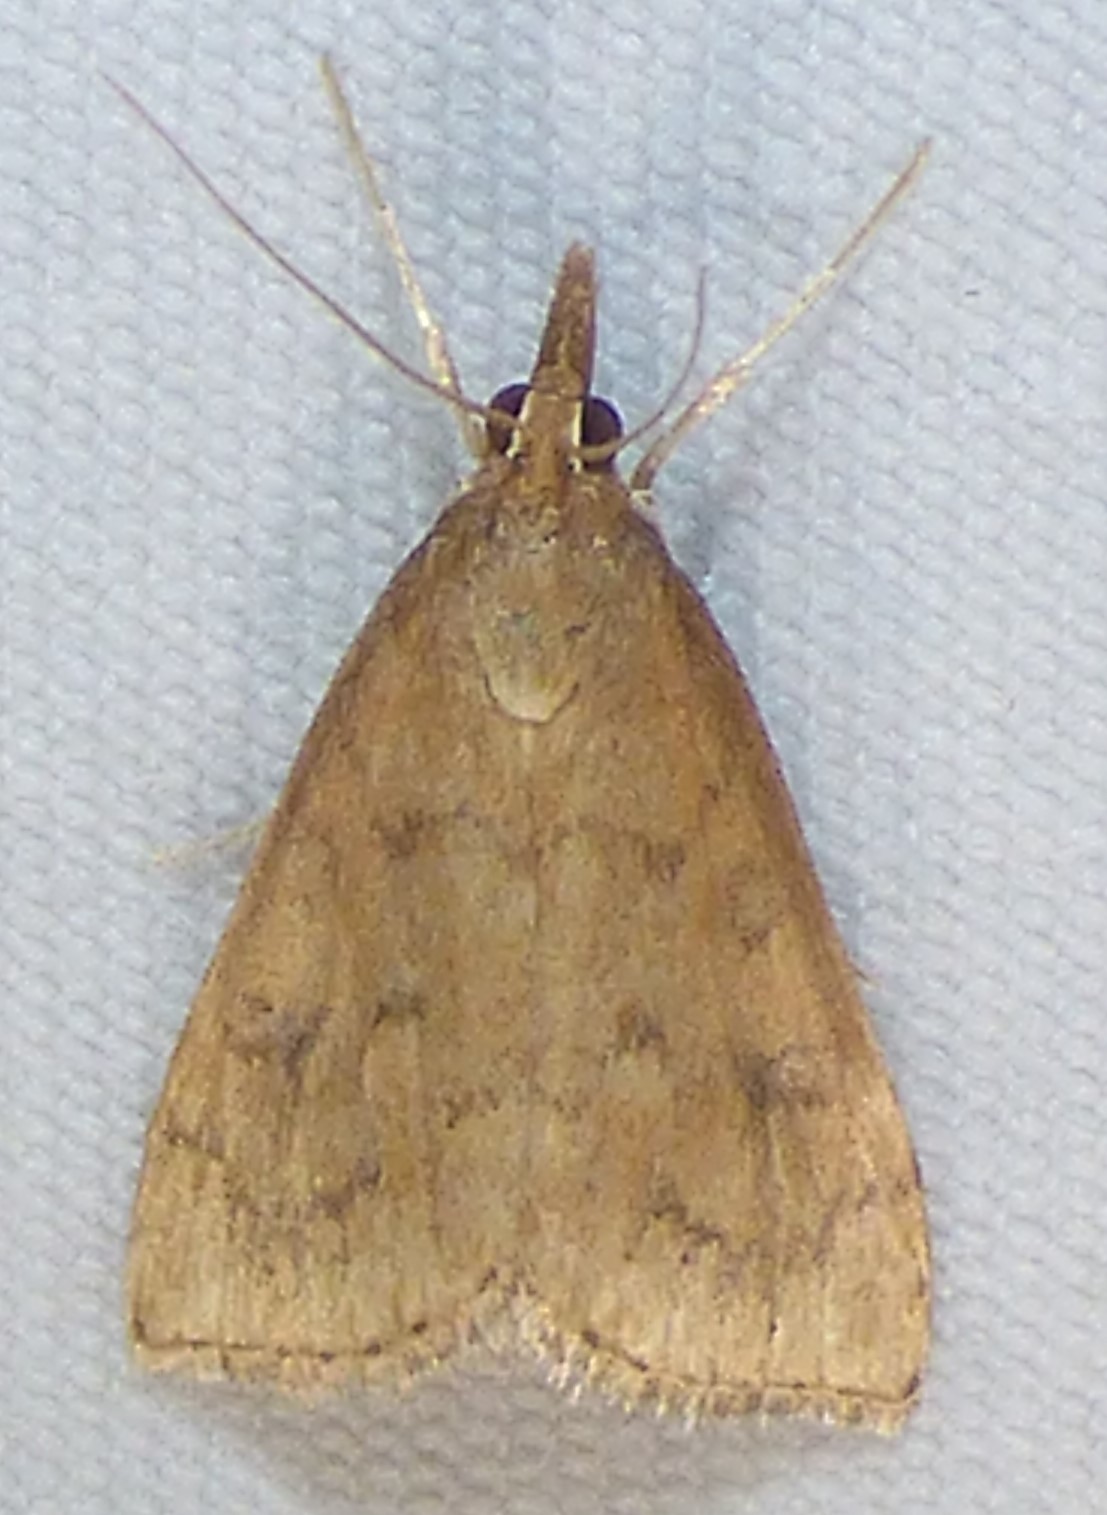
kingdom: Animalia
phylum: Arthropoda
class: Insecta
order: Lepidoptera
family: Crambidae
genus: Udea
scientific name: Udea rubigalis
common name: Celery leaftier moth
